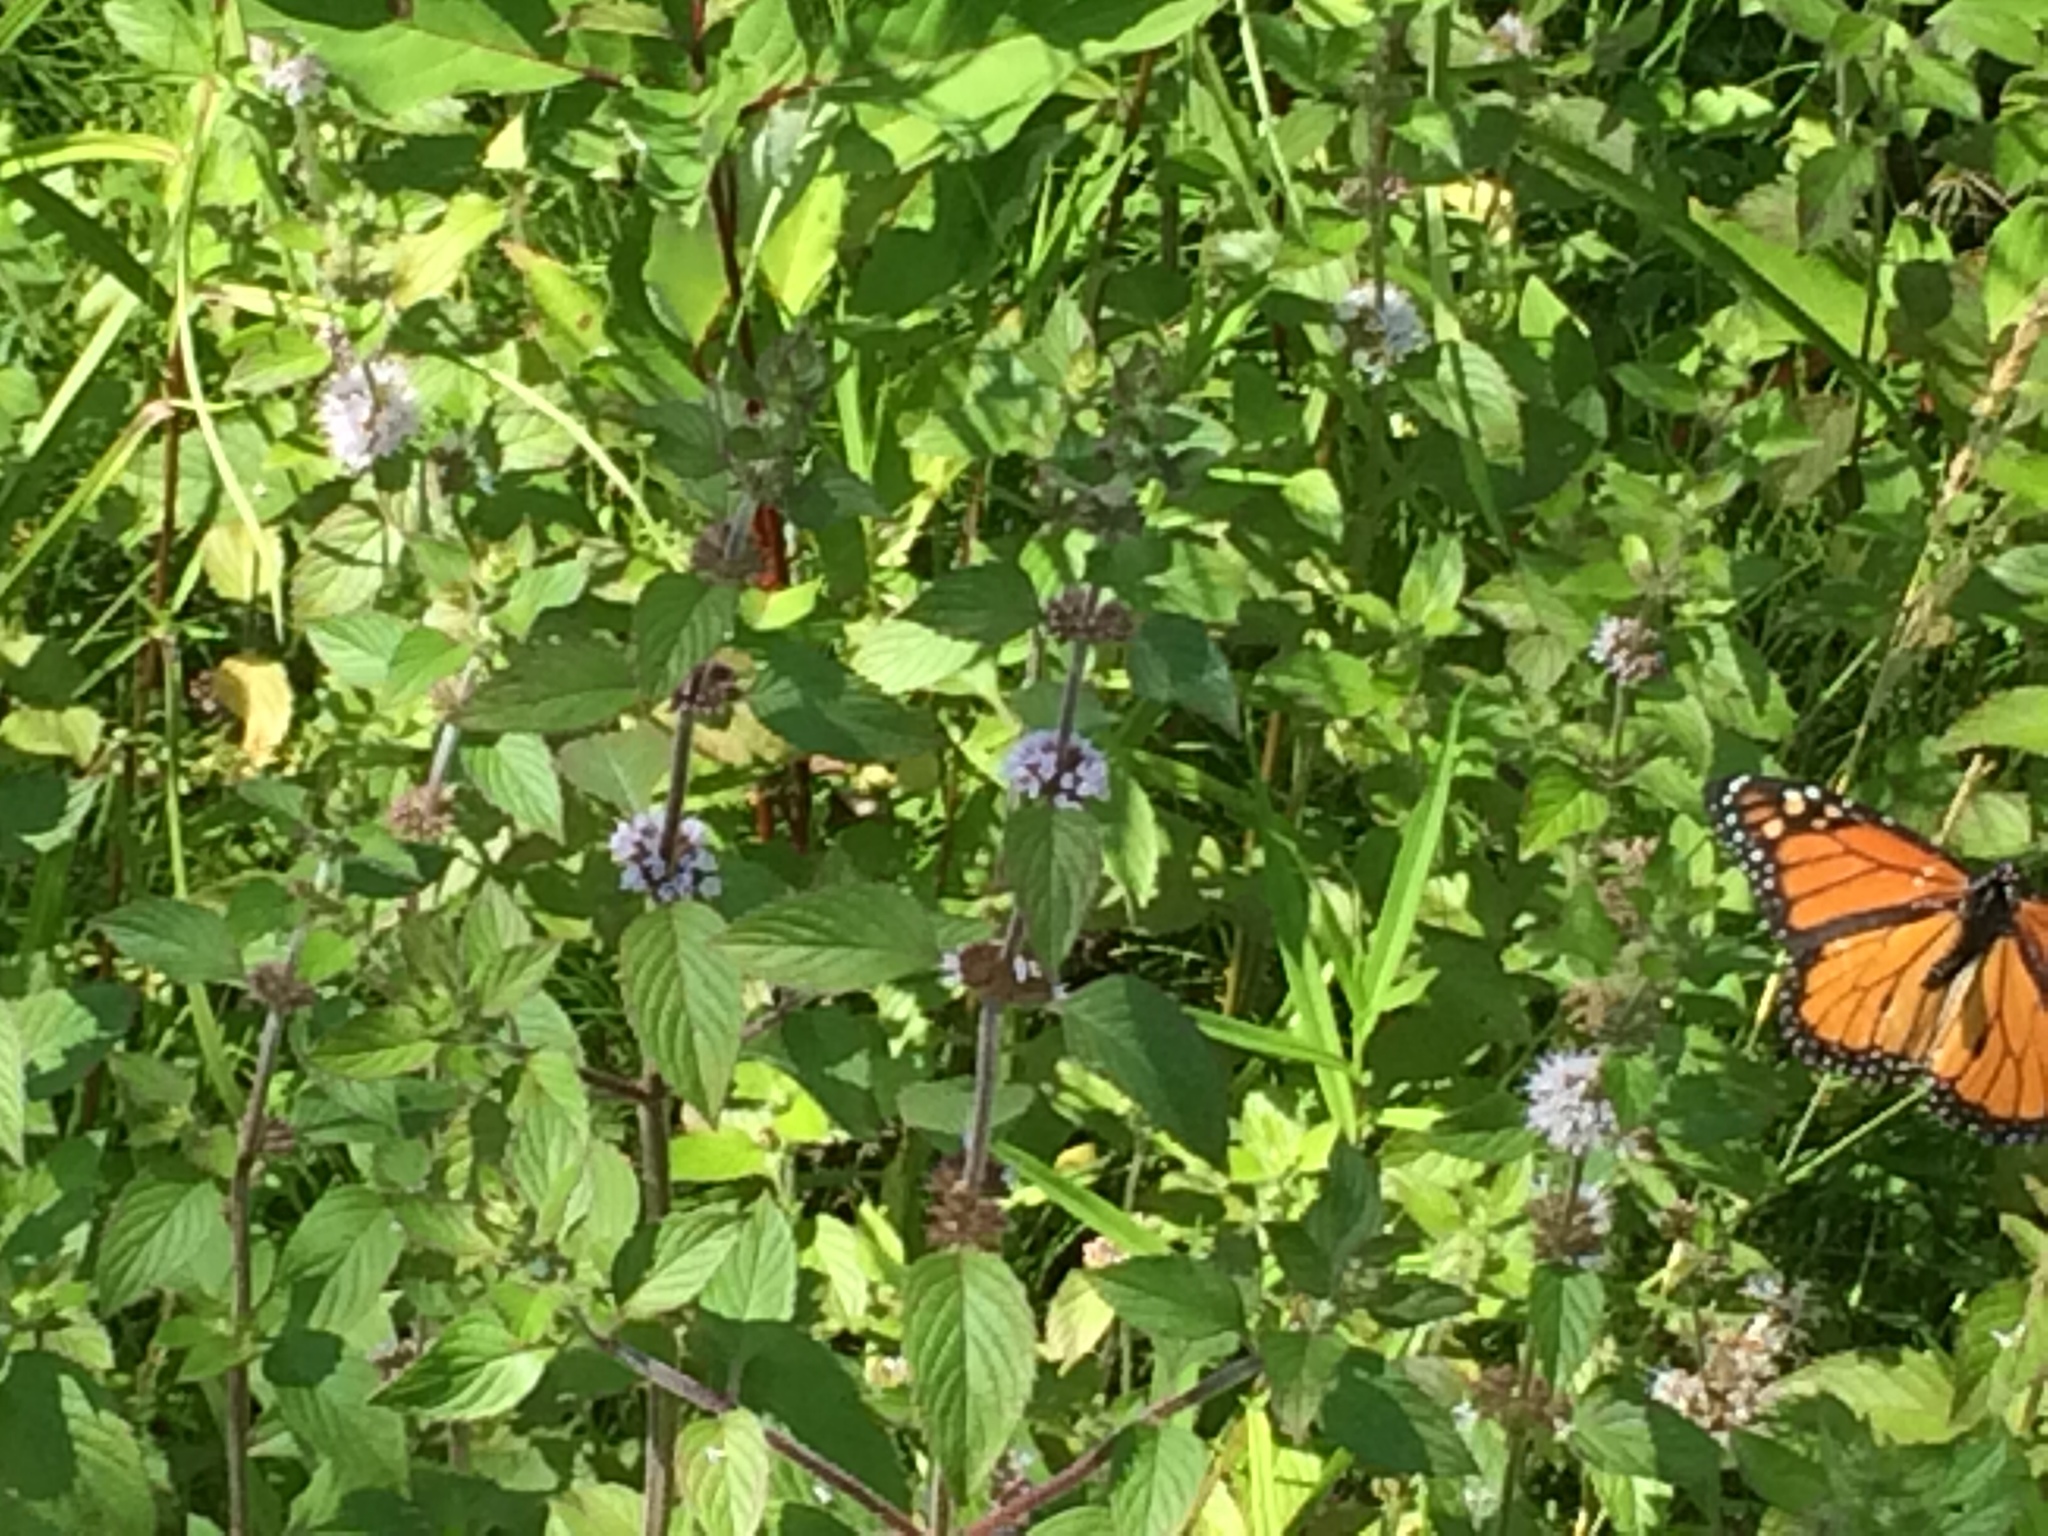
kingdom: Animalia
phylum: Arthropoda
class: Insecta
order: Lepidoptera
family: Nymphalidae
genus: Danaus
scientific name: Danaus plexippus
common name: Monarch
